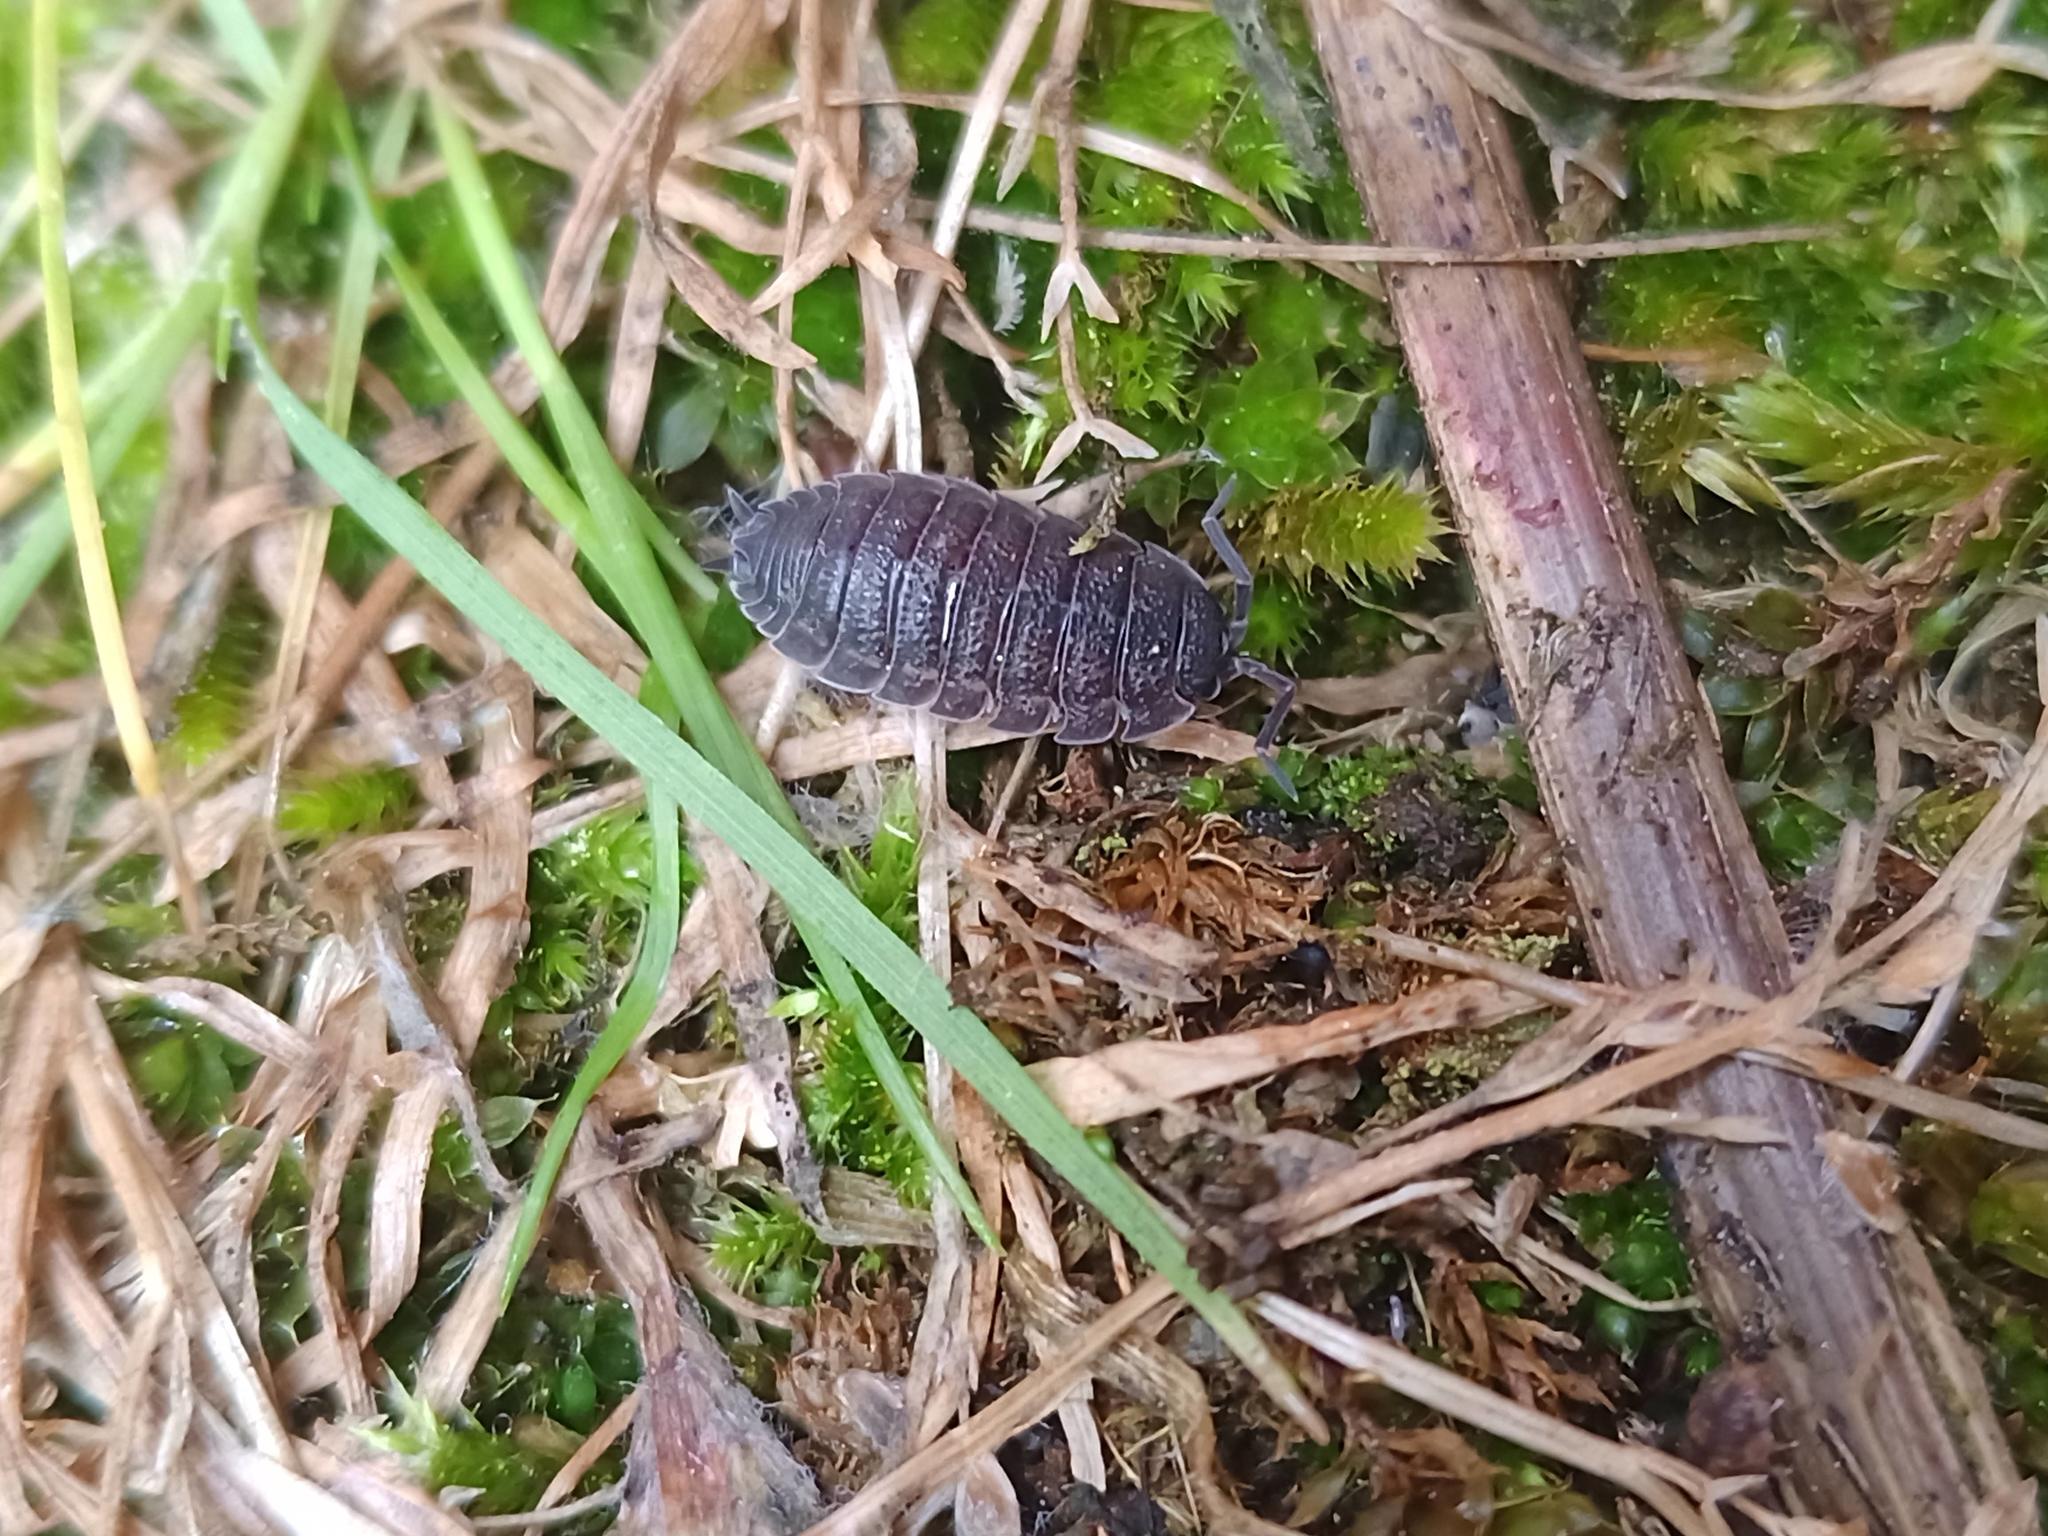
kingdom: Animalia
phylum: Arthropoda
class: Malacostraca
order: Isopoda
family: Porcellionidae
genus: Porcellio
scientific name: Porcellio scaber
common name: Common rough woodlouse
